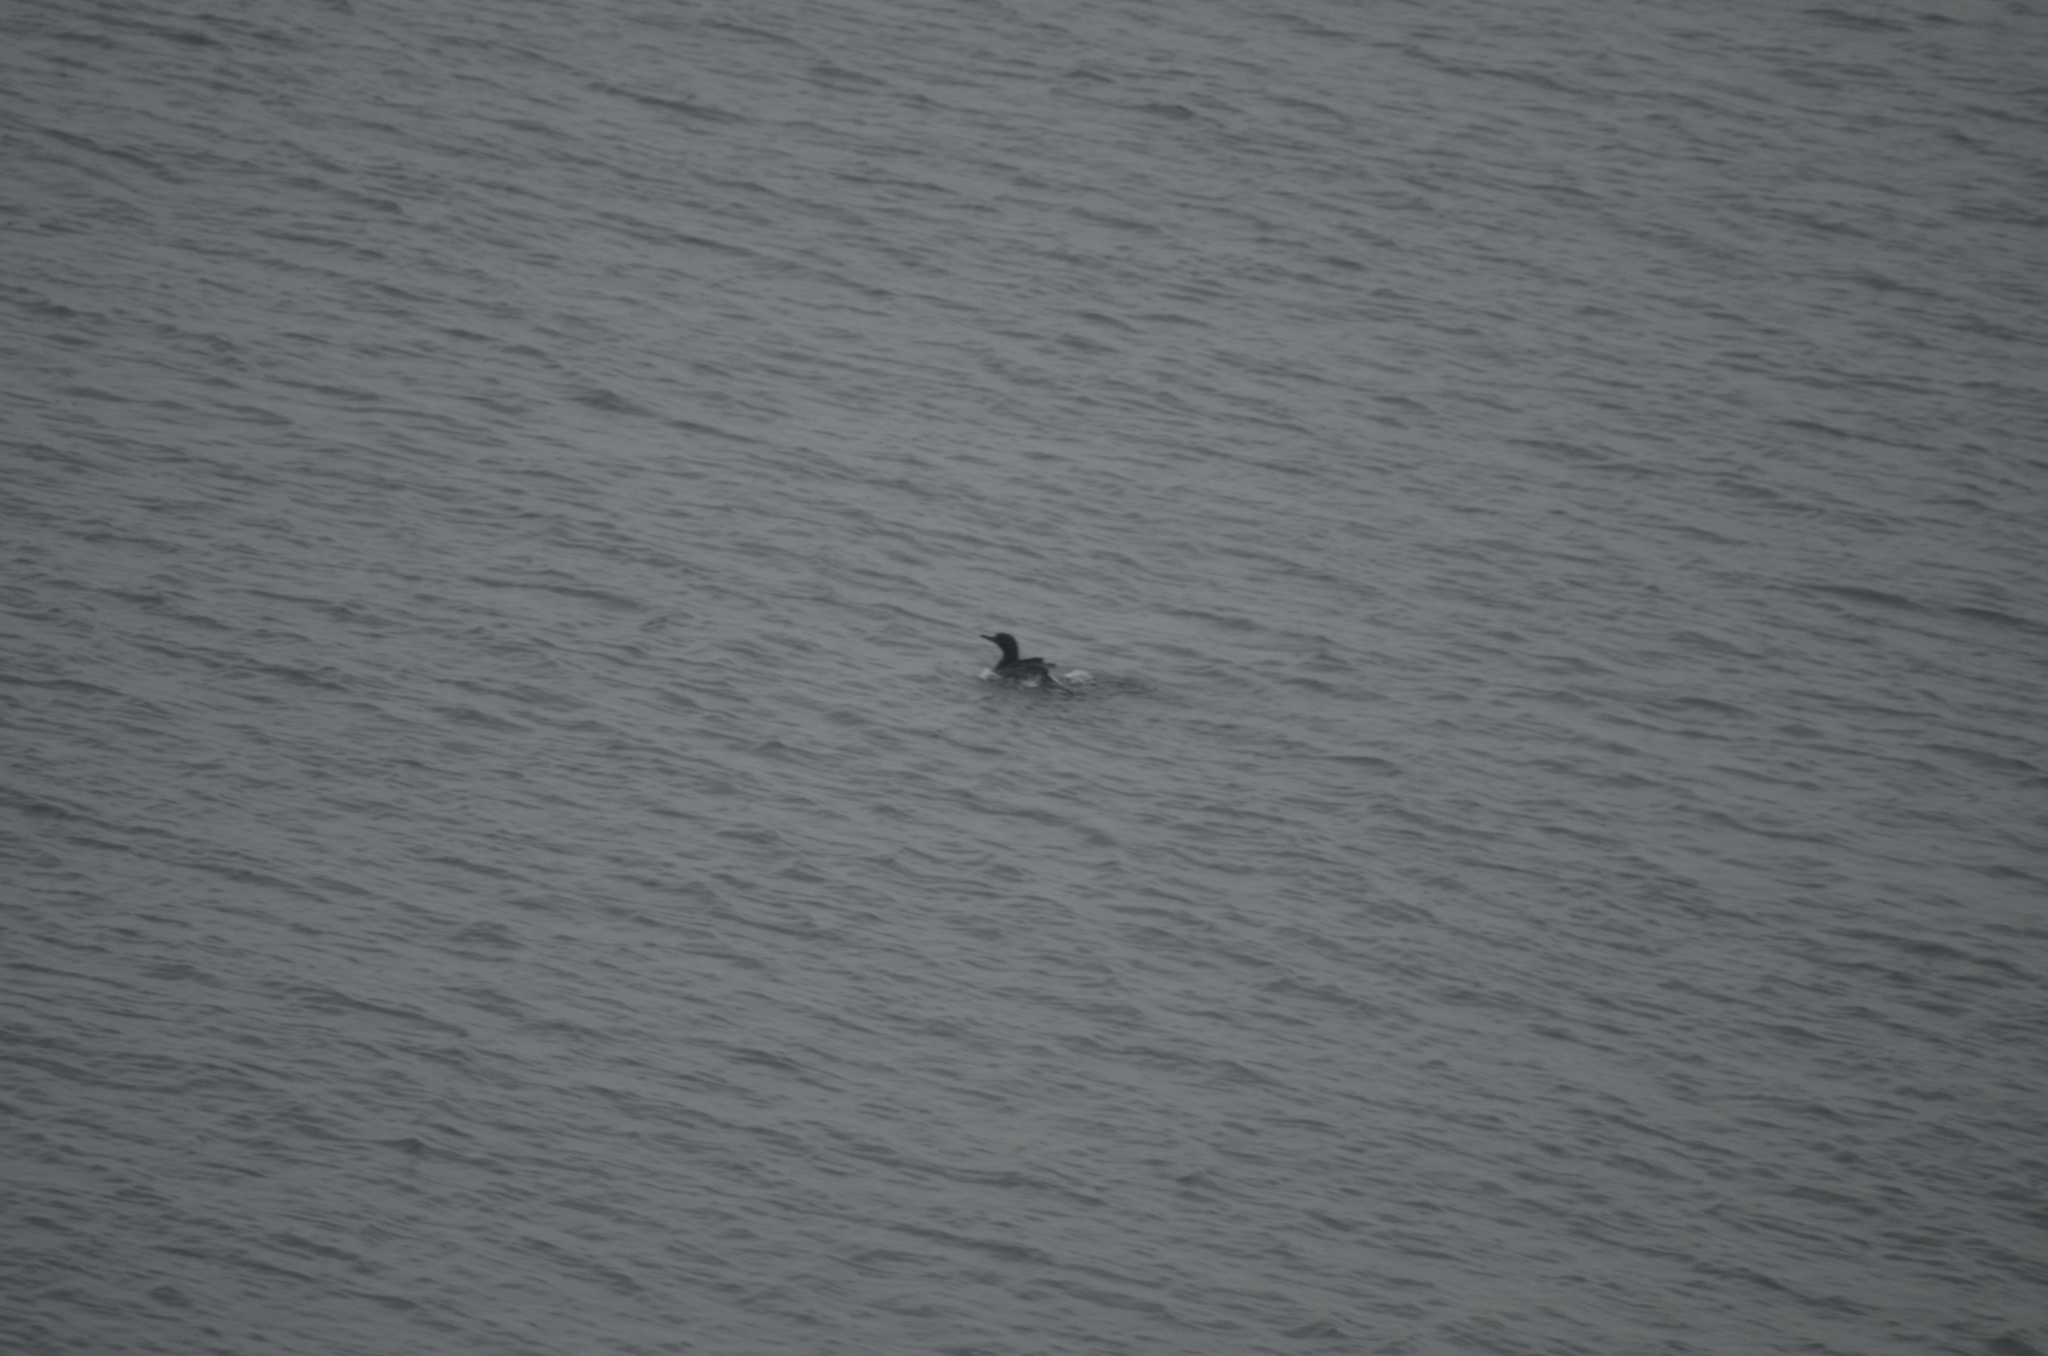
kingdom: Animalia
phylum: Chordata
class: Aves
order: Suliformes
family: Phalacrocoracidae
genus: Phalacrocorax
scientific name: Phalacrocorax pelagicus
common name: Pelagic cormorant
